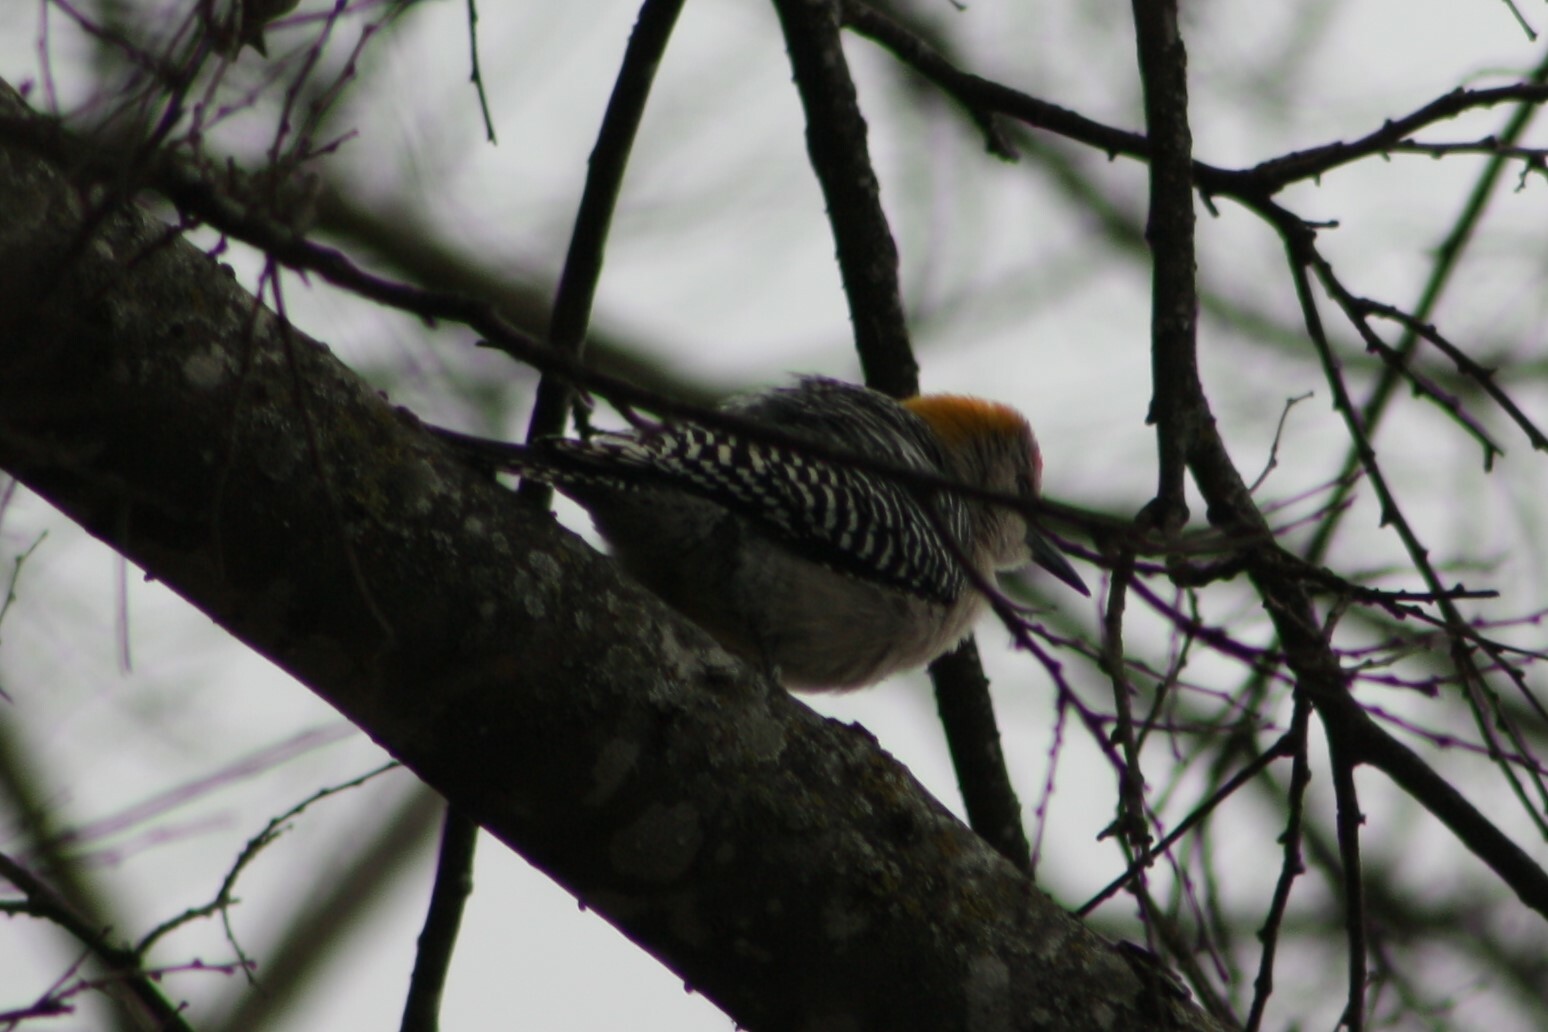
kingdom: Animalia
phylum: Chordata
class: Aves
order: Piciformes
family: Picidae
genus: Melanerpes
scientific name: Melanerpes aurifrons
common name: Golden-fronted woodpecker
